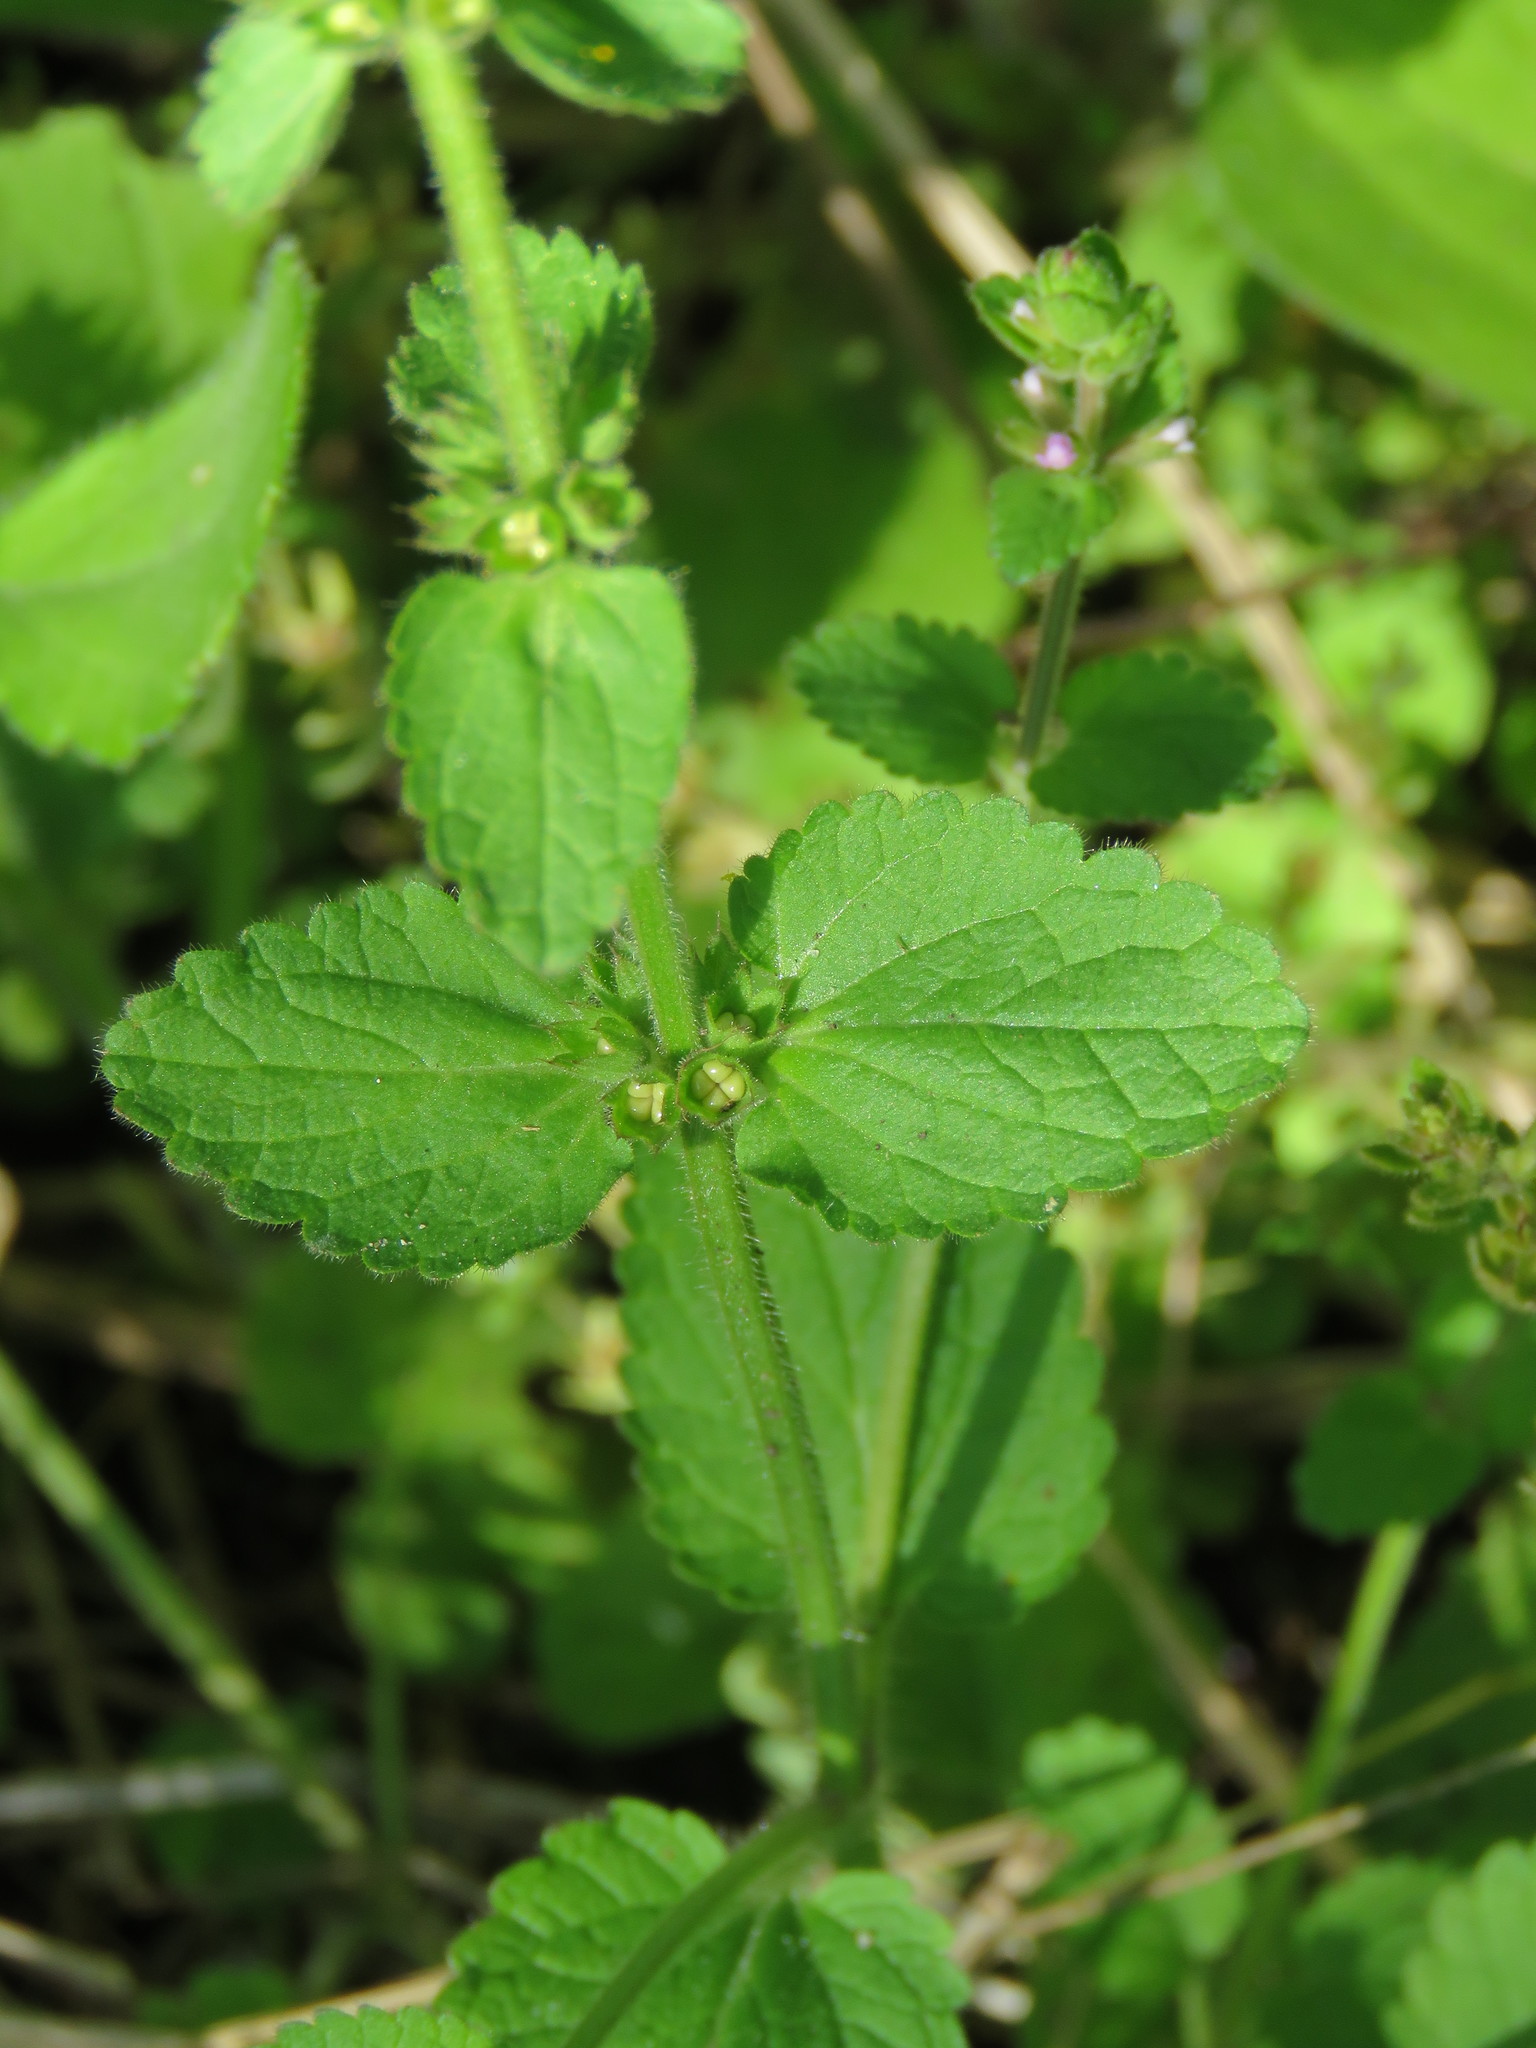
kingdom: Plantae
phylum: Tracheophyta
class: Magnoliopsida
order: Lamiales
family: Lamiaceae
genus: Stachys
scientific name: Stachys
